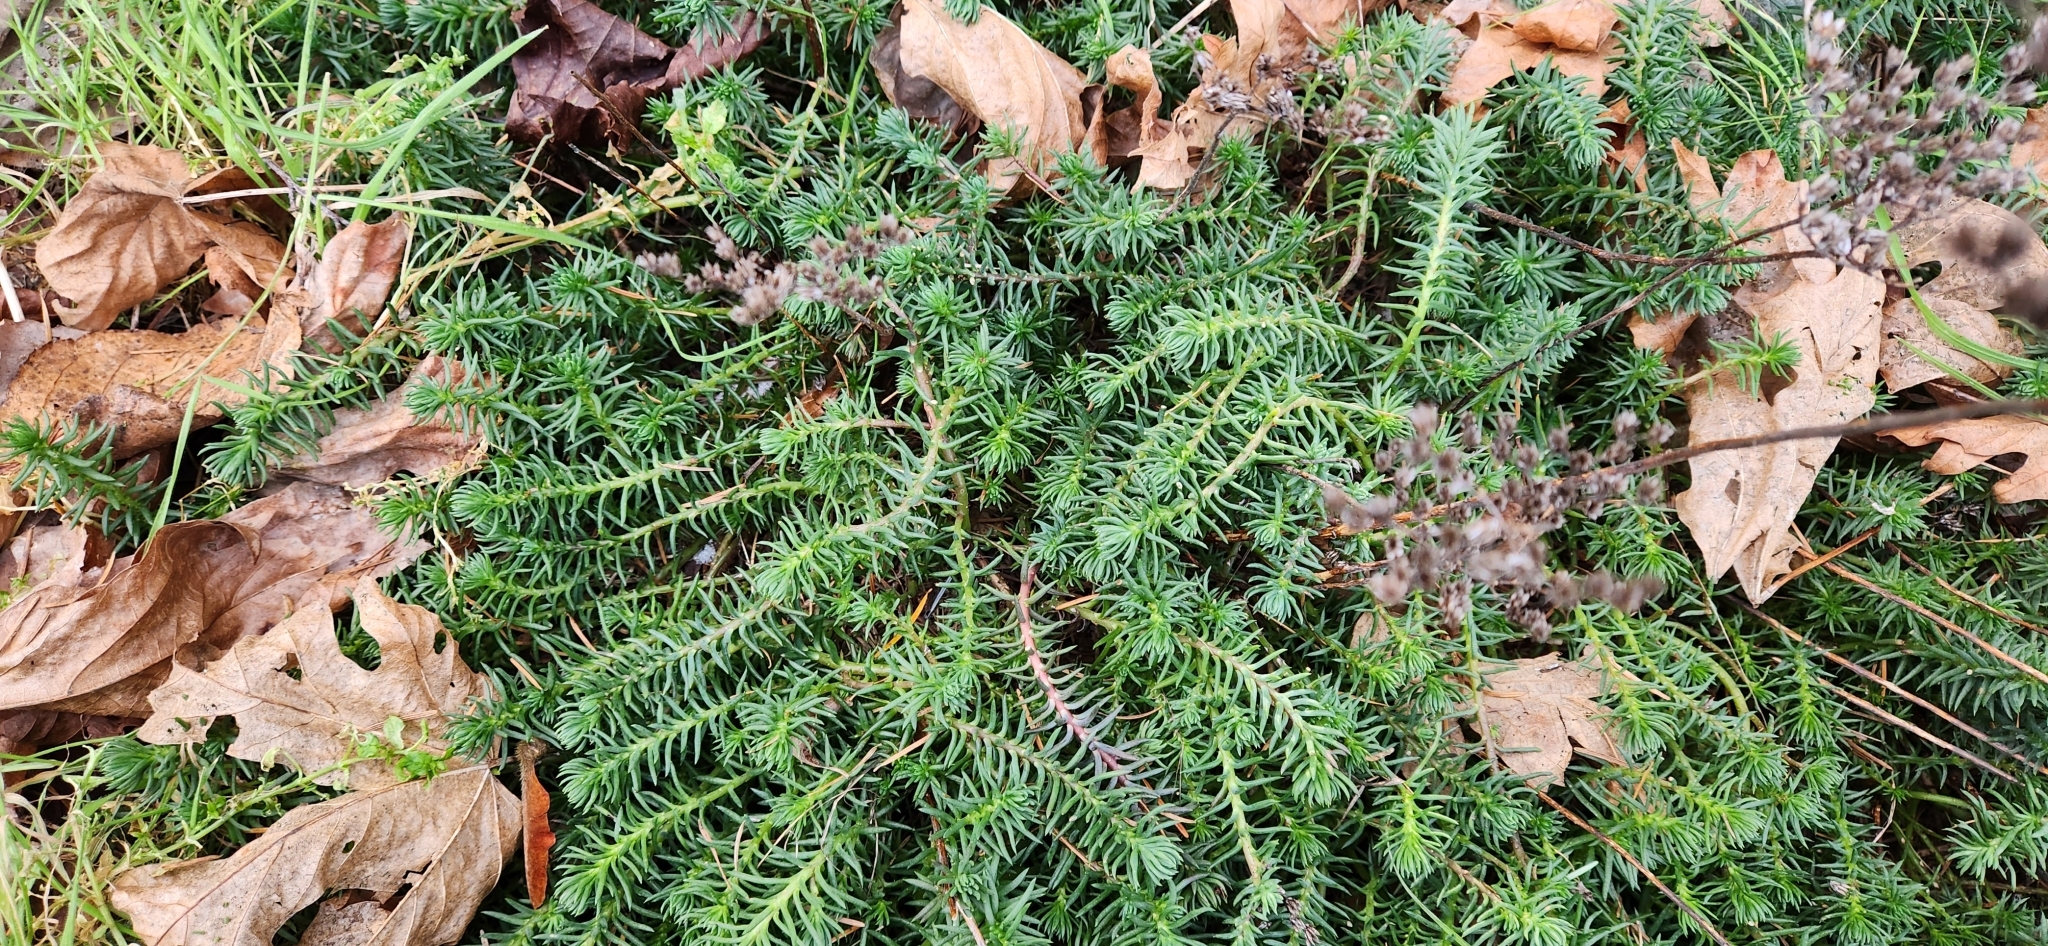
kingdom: Plantae
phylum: Tracheophyta
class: Magnoliopsida
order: Saxifragales
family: Crassulaceae
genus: Petrosedum
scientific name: Petrosedum rupestre
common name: Jenny's stonecrop
